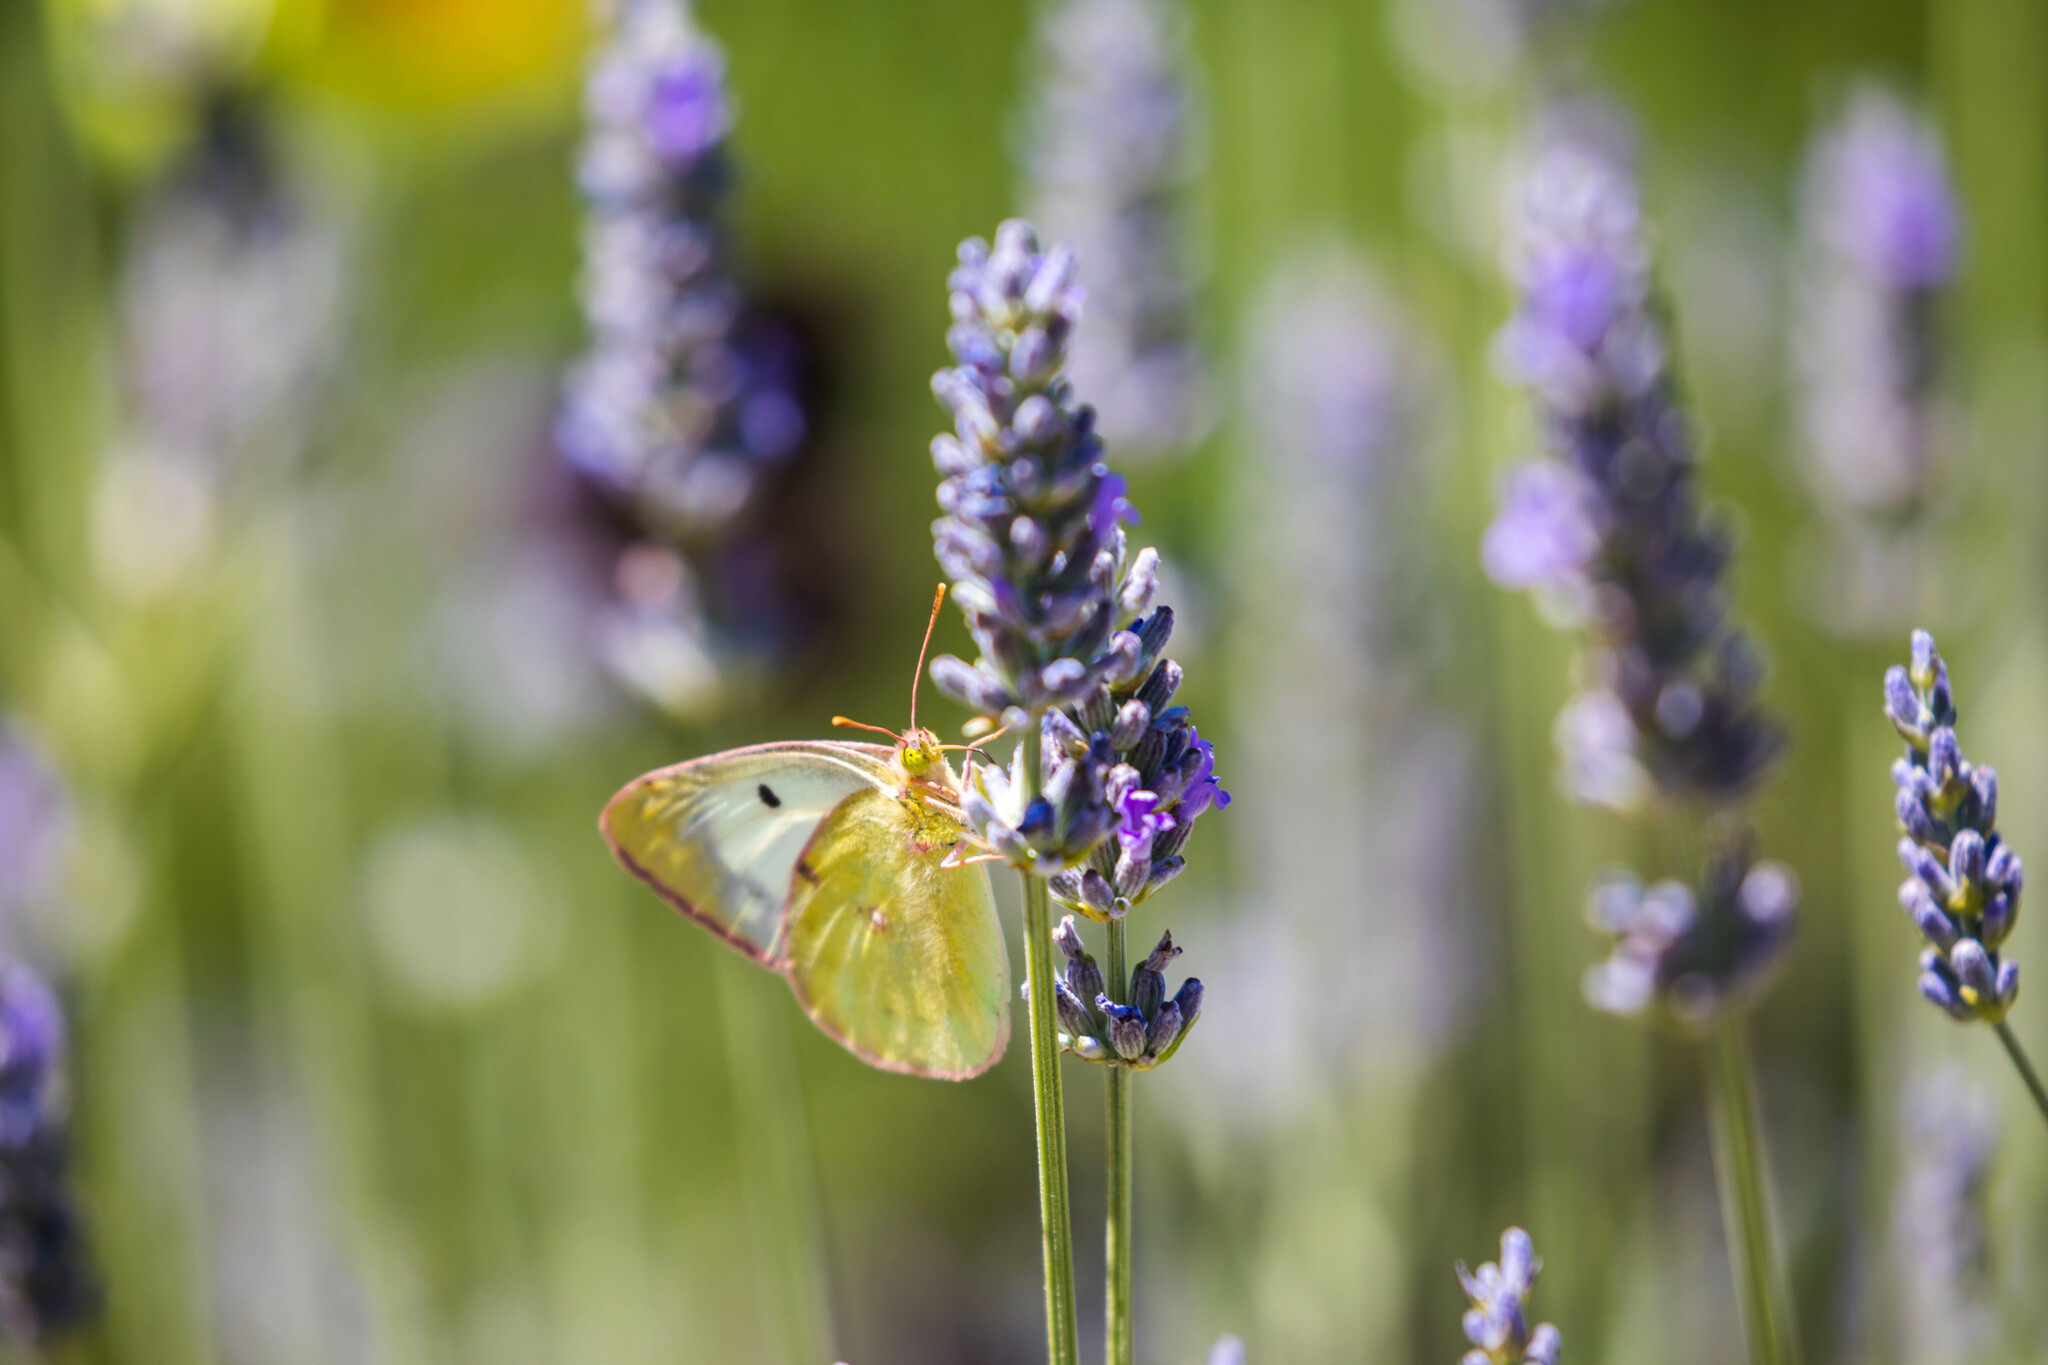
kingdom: Animalia
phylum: Arthropoda
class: Insecta
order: Lepidoptera
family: Pieridae
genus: Colias
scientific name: Colias alfacariensis
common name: Berger's clouded yellow
